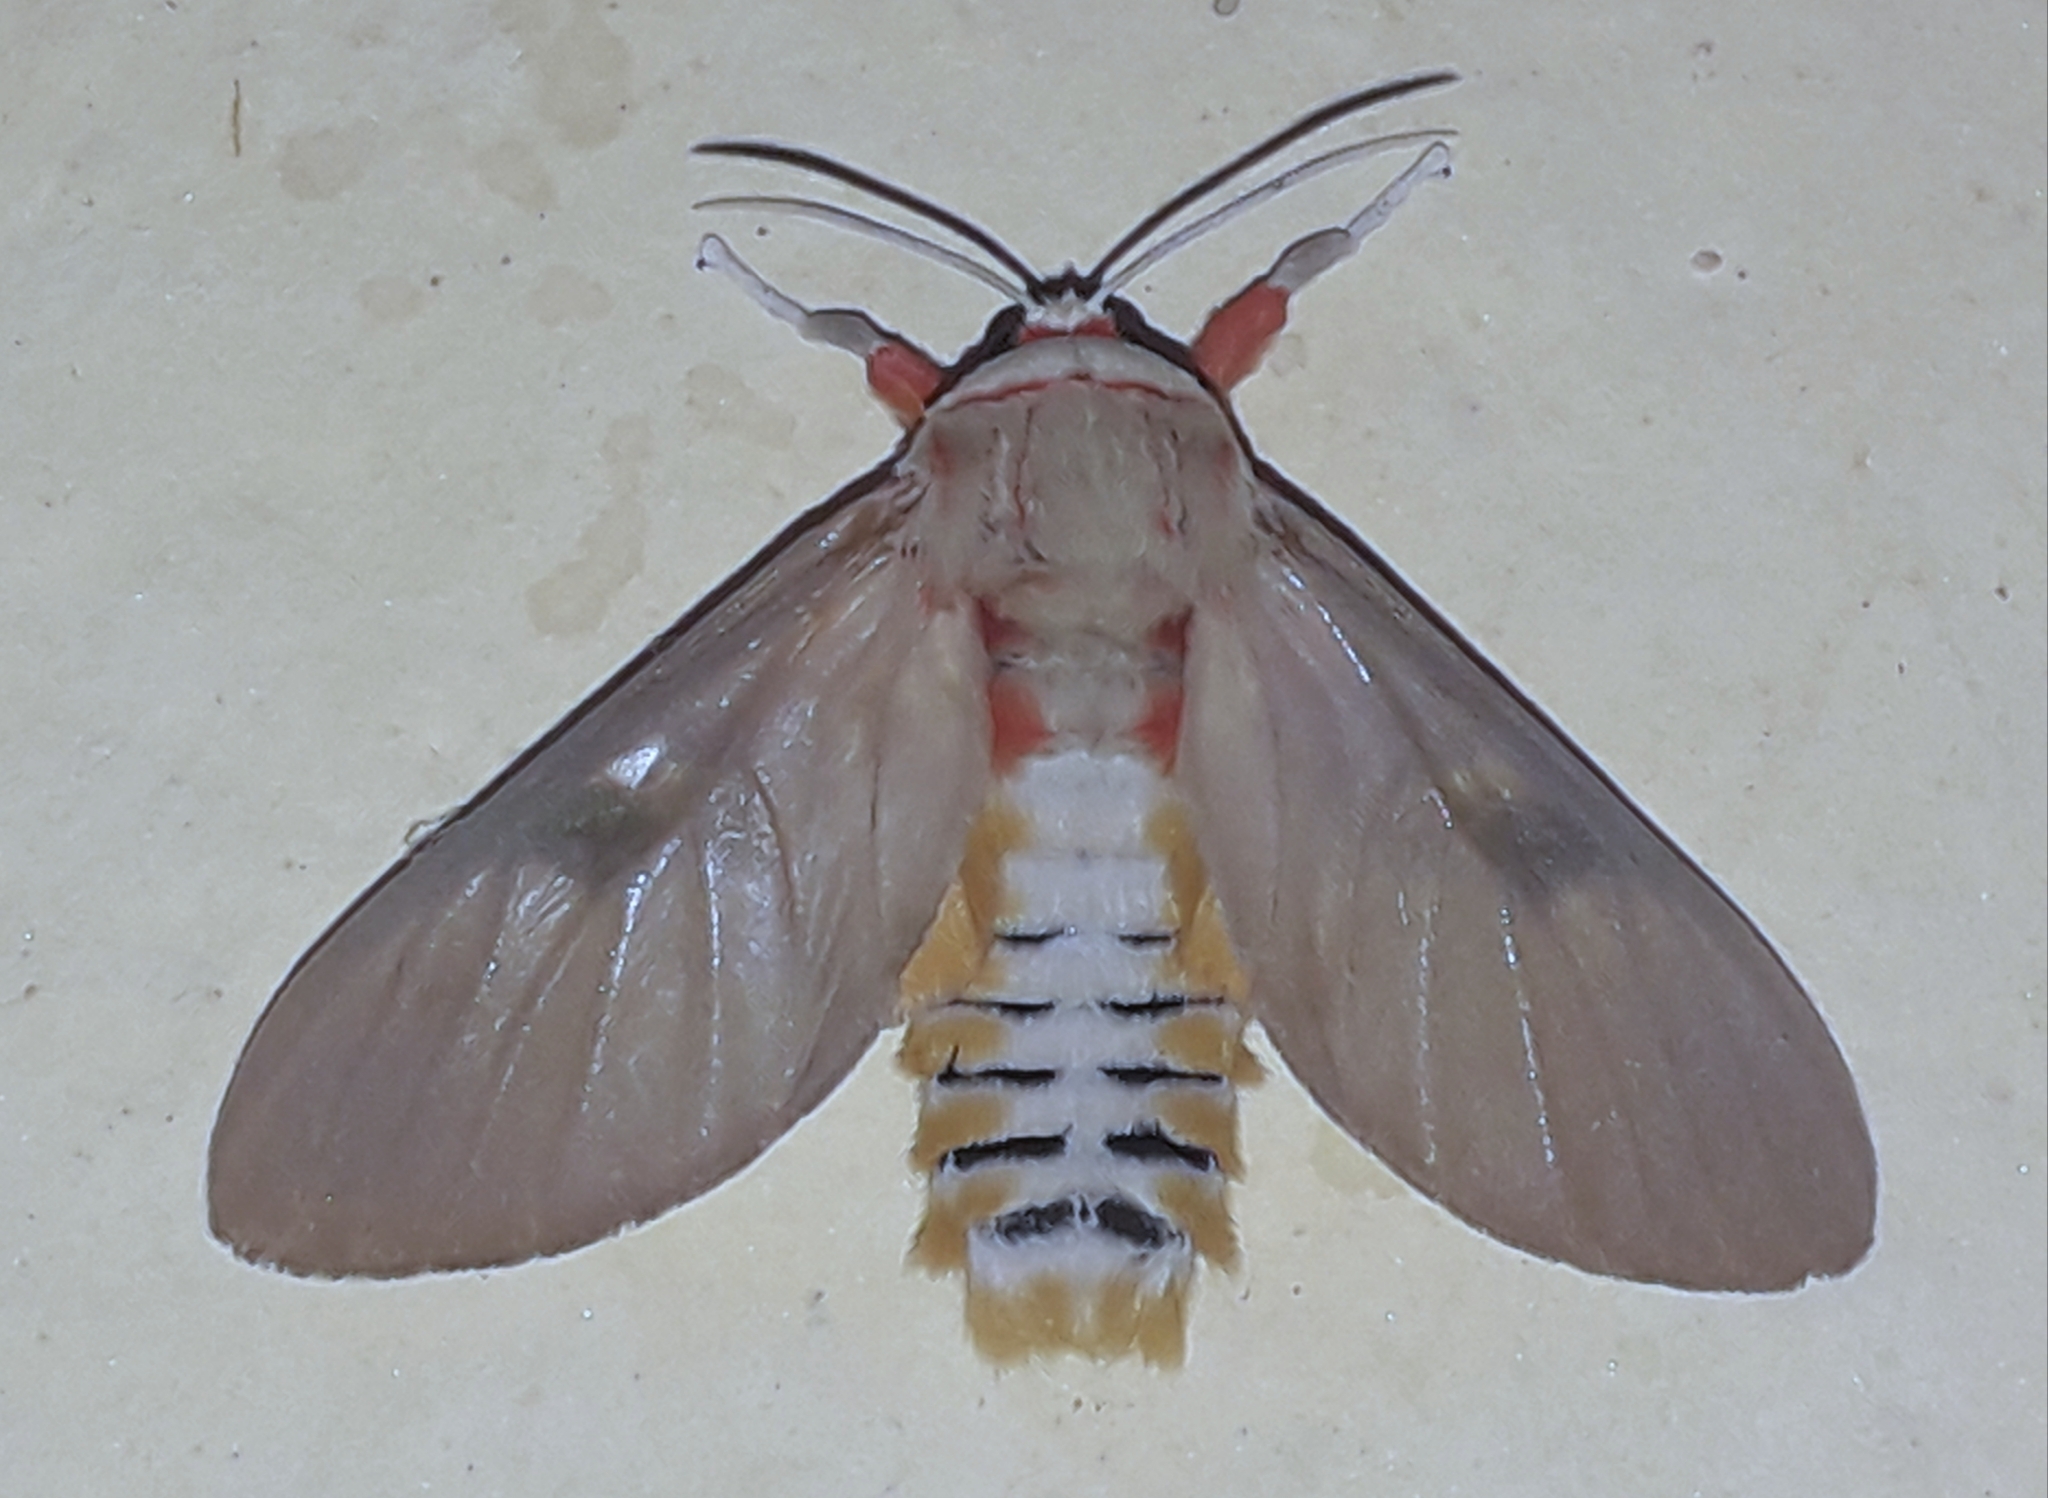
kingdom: Animalia
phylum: Arthropoda
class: Insecta
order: Lepidoptera
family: Erebidae
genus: Balacra
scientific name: Balacra herona
